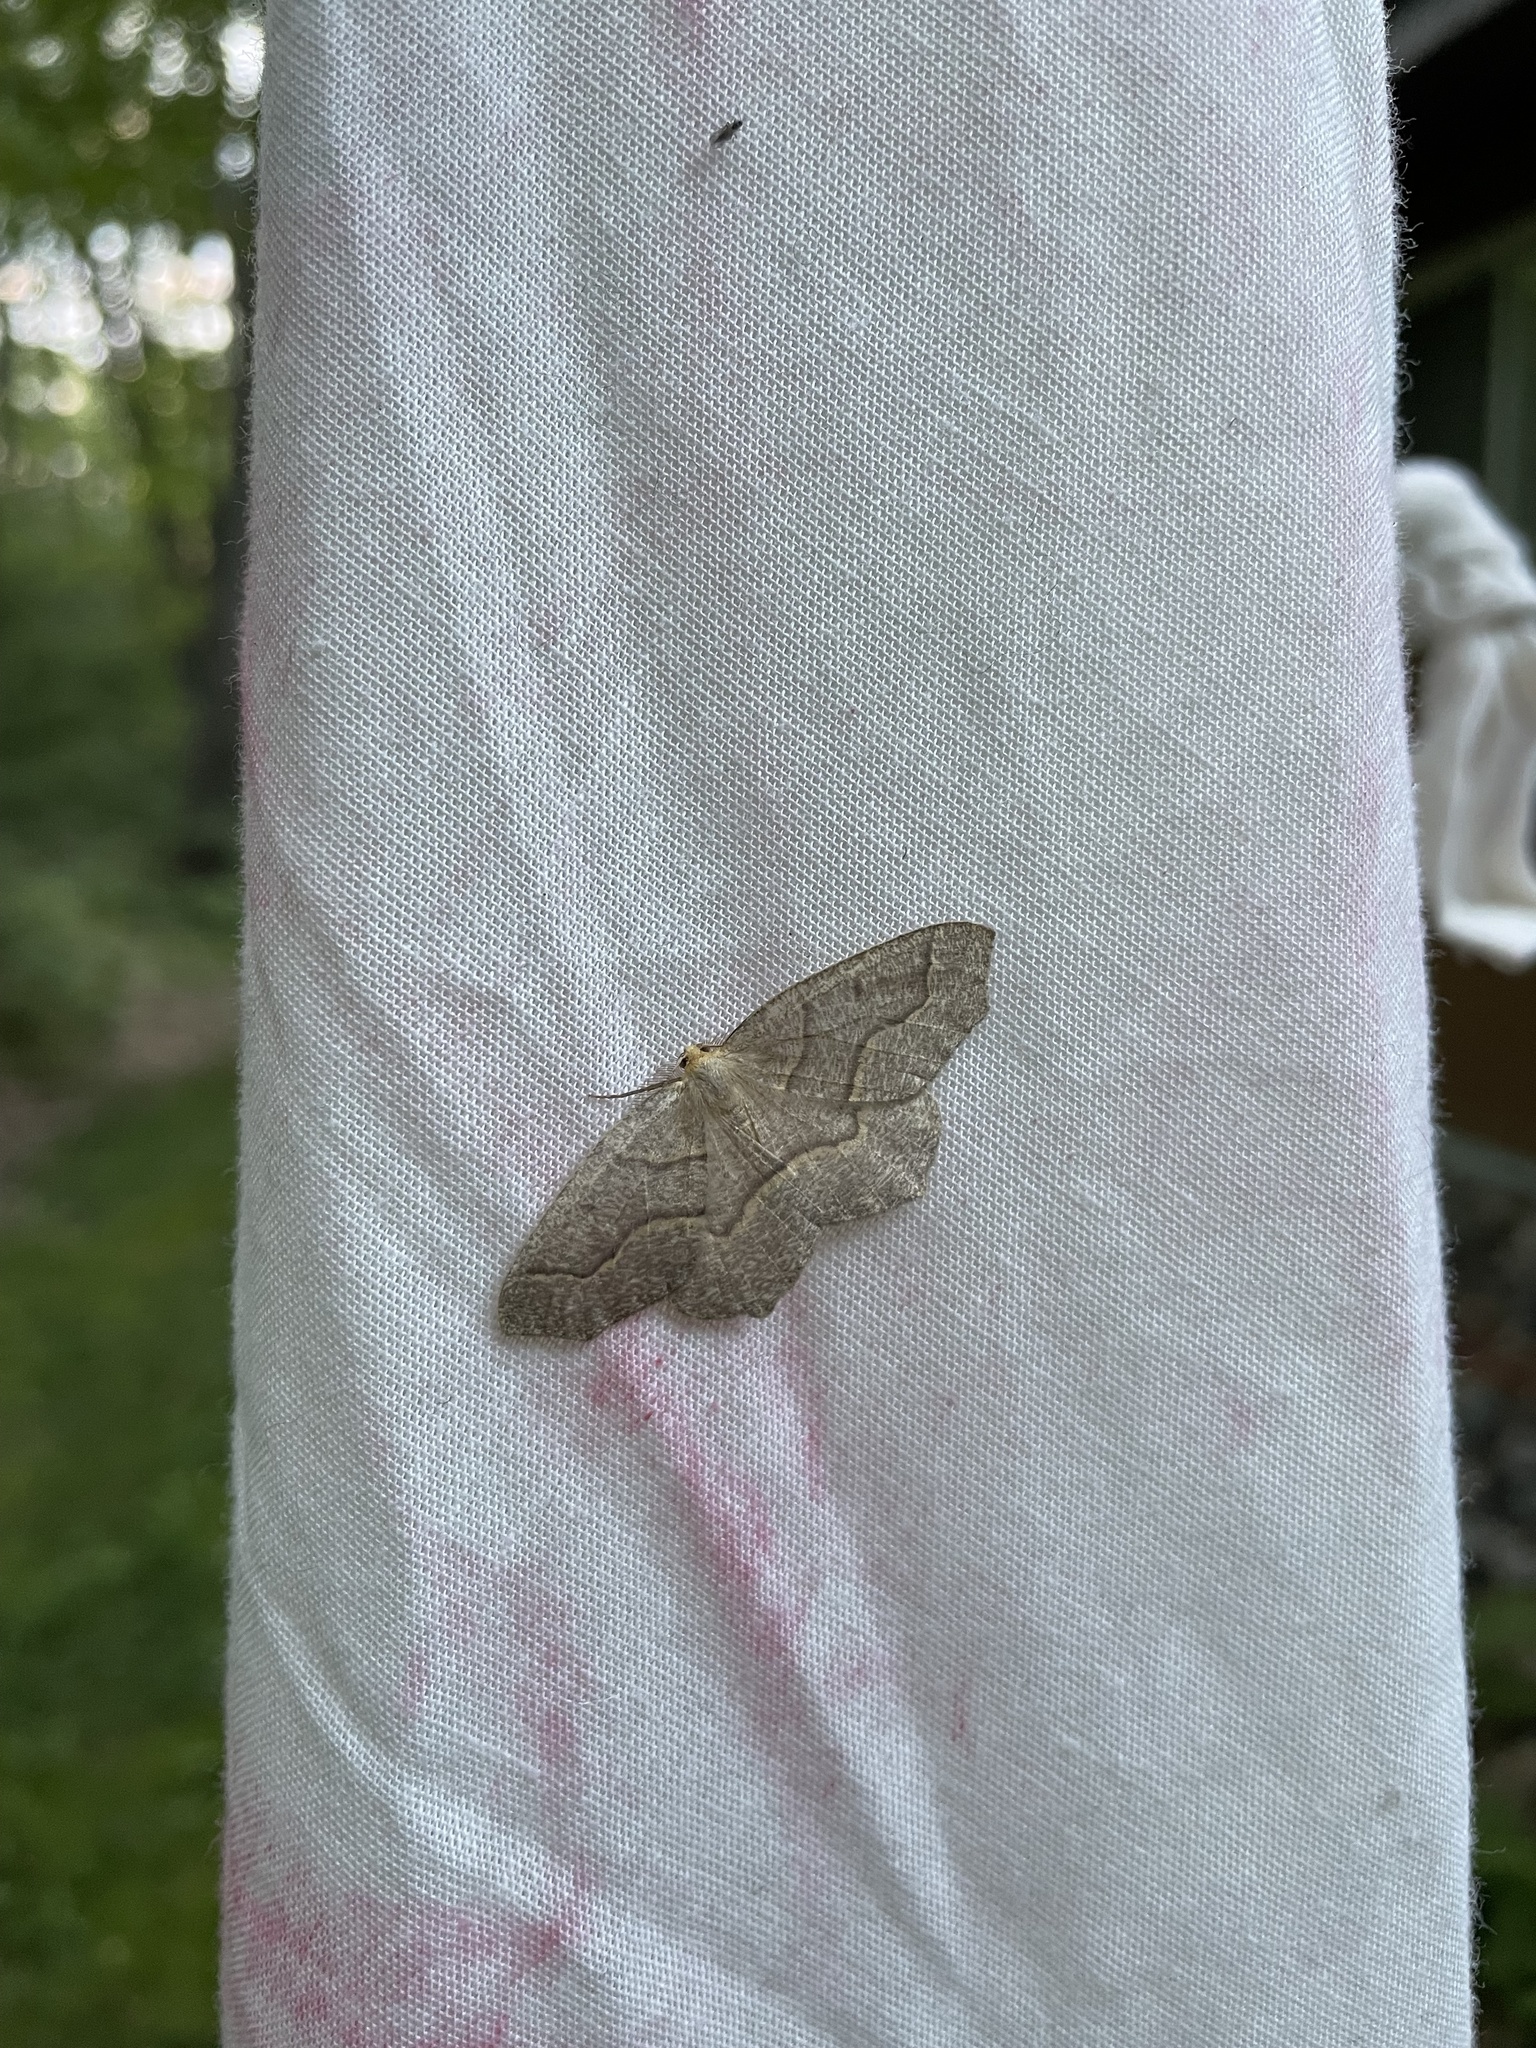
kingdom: Animalia
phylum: Arthropoda
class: Insecta
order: Lepidoptera
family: Geometridae
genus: Lambdina
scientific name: Lambdina fiscellaria
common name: Hemlock looper
